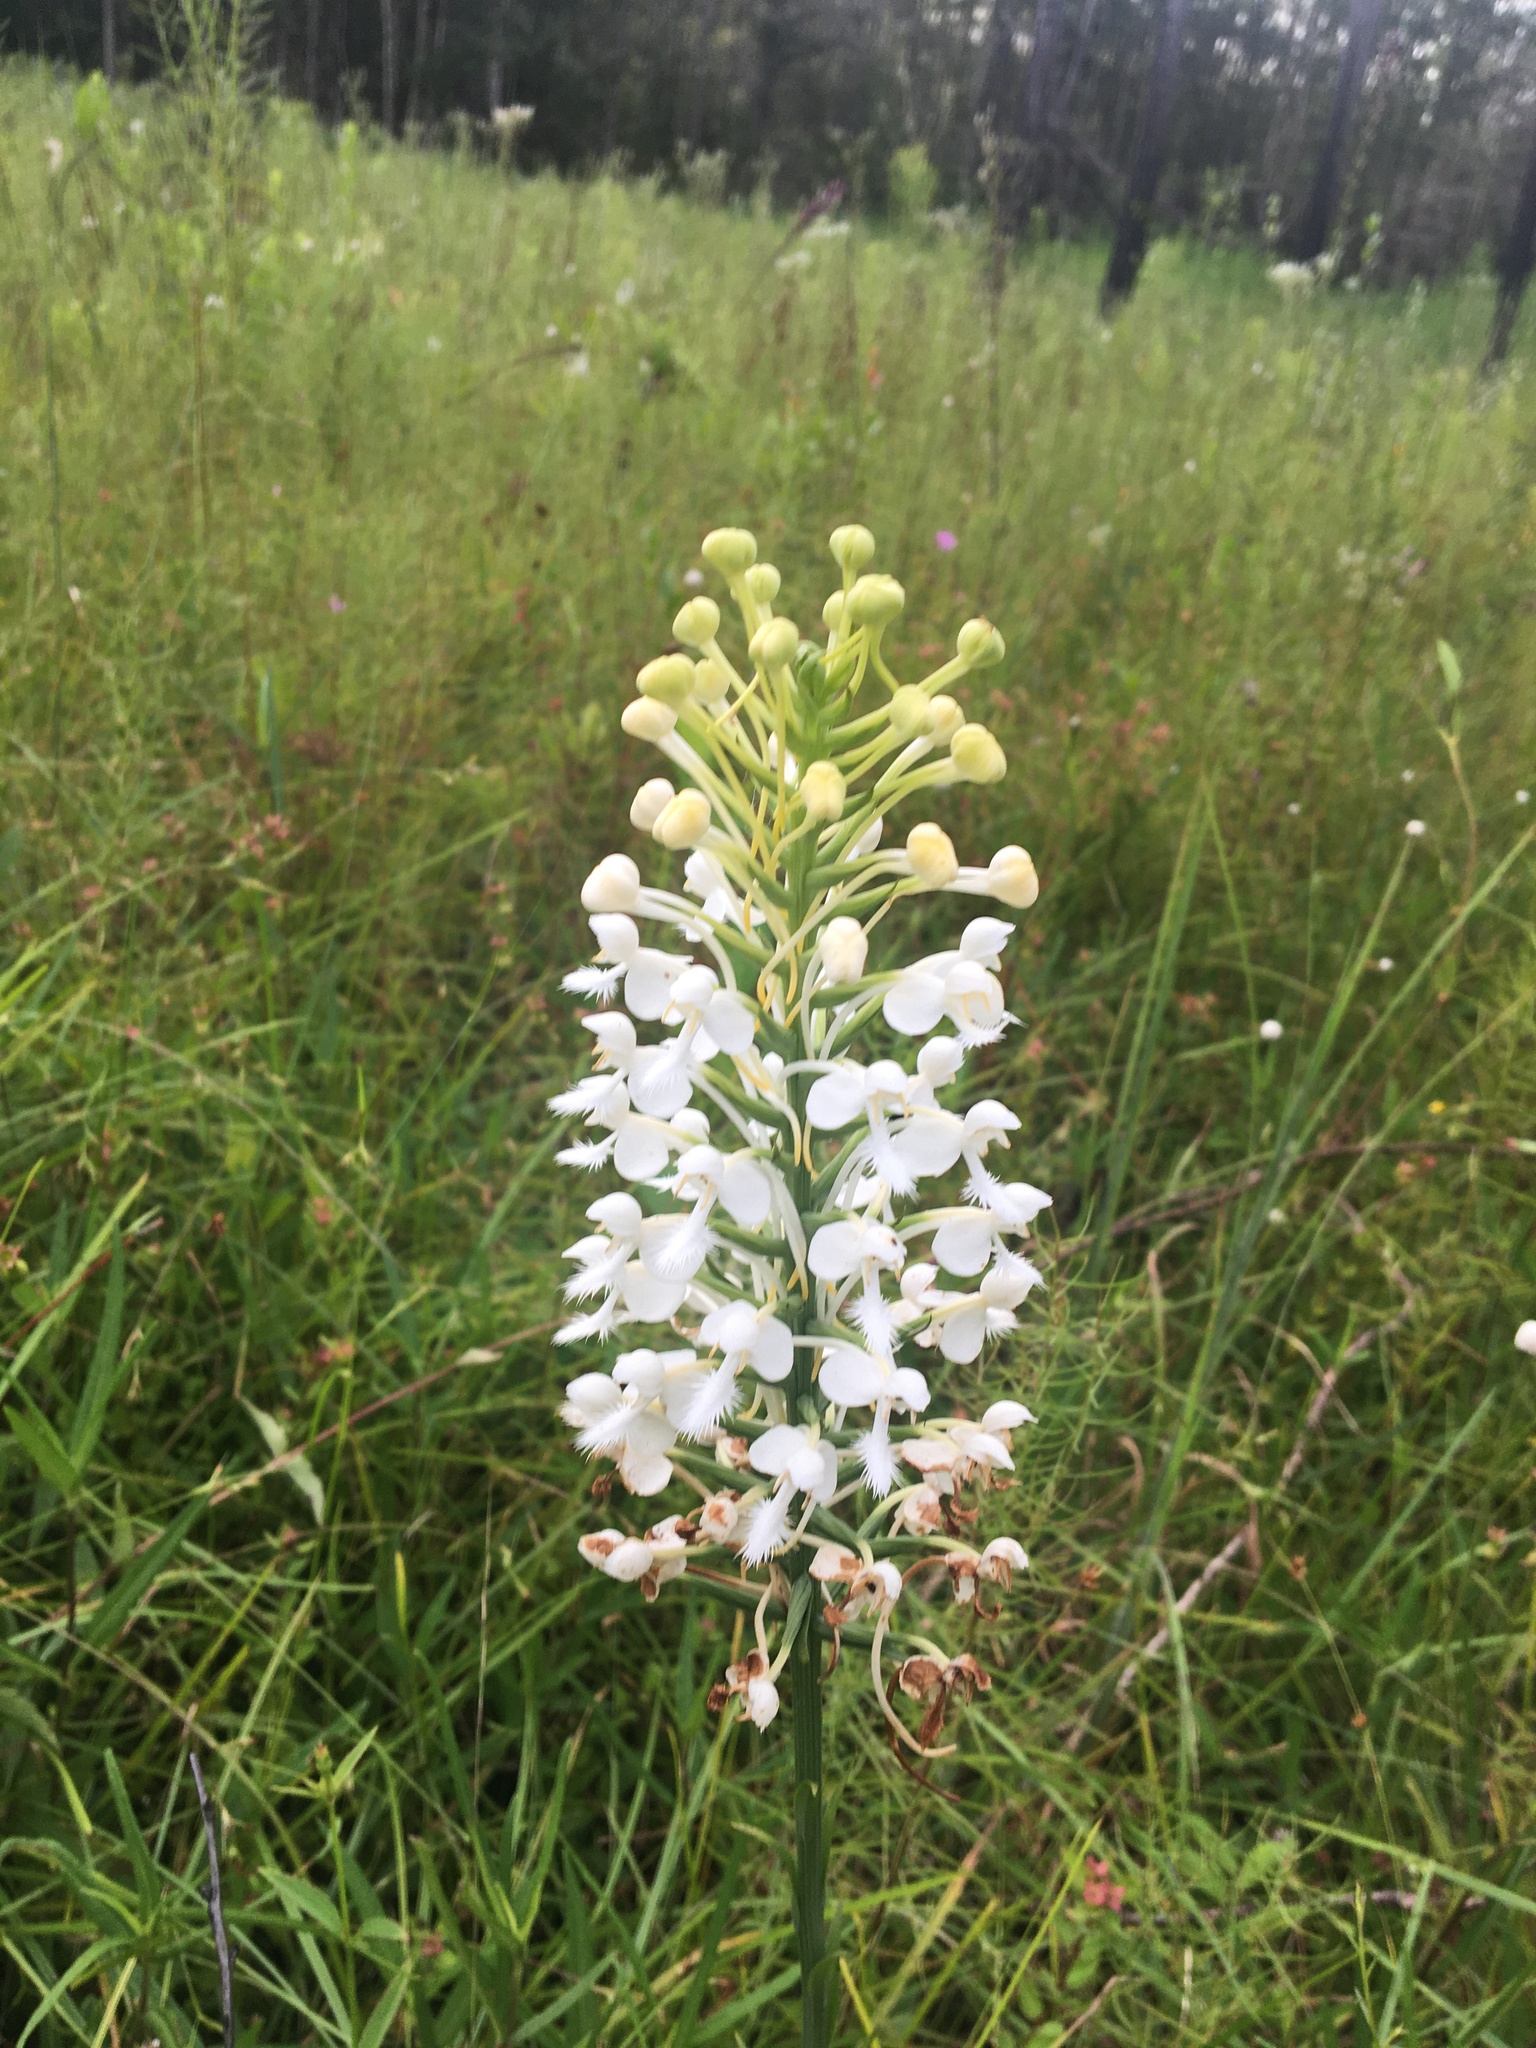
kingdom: Plantae
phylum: Tracheophyta
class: Liliopsida
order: Asparagales
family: Orchidaceae
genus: Platanthera
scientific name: Platanthera blephariglottis
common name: White fringed orchid
